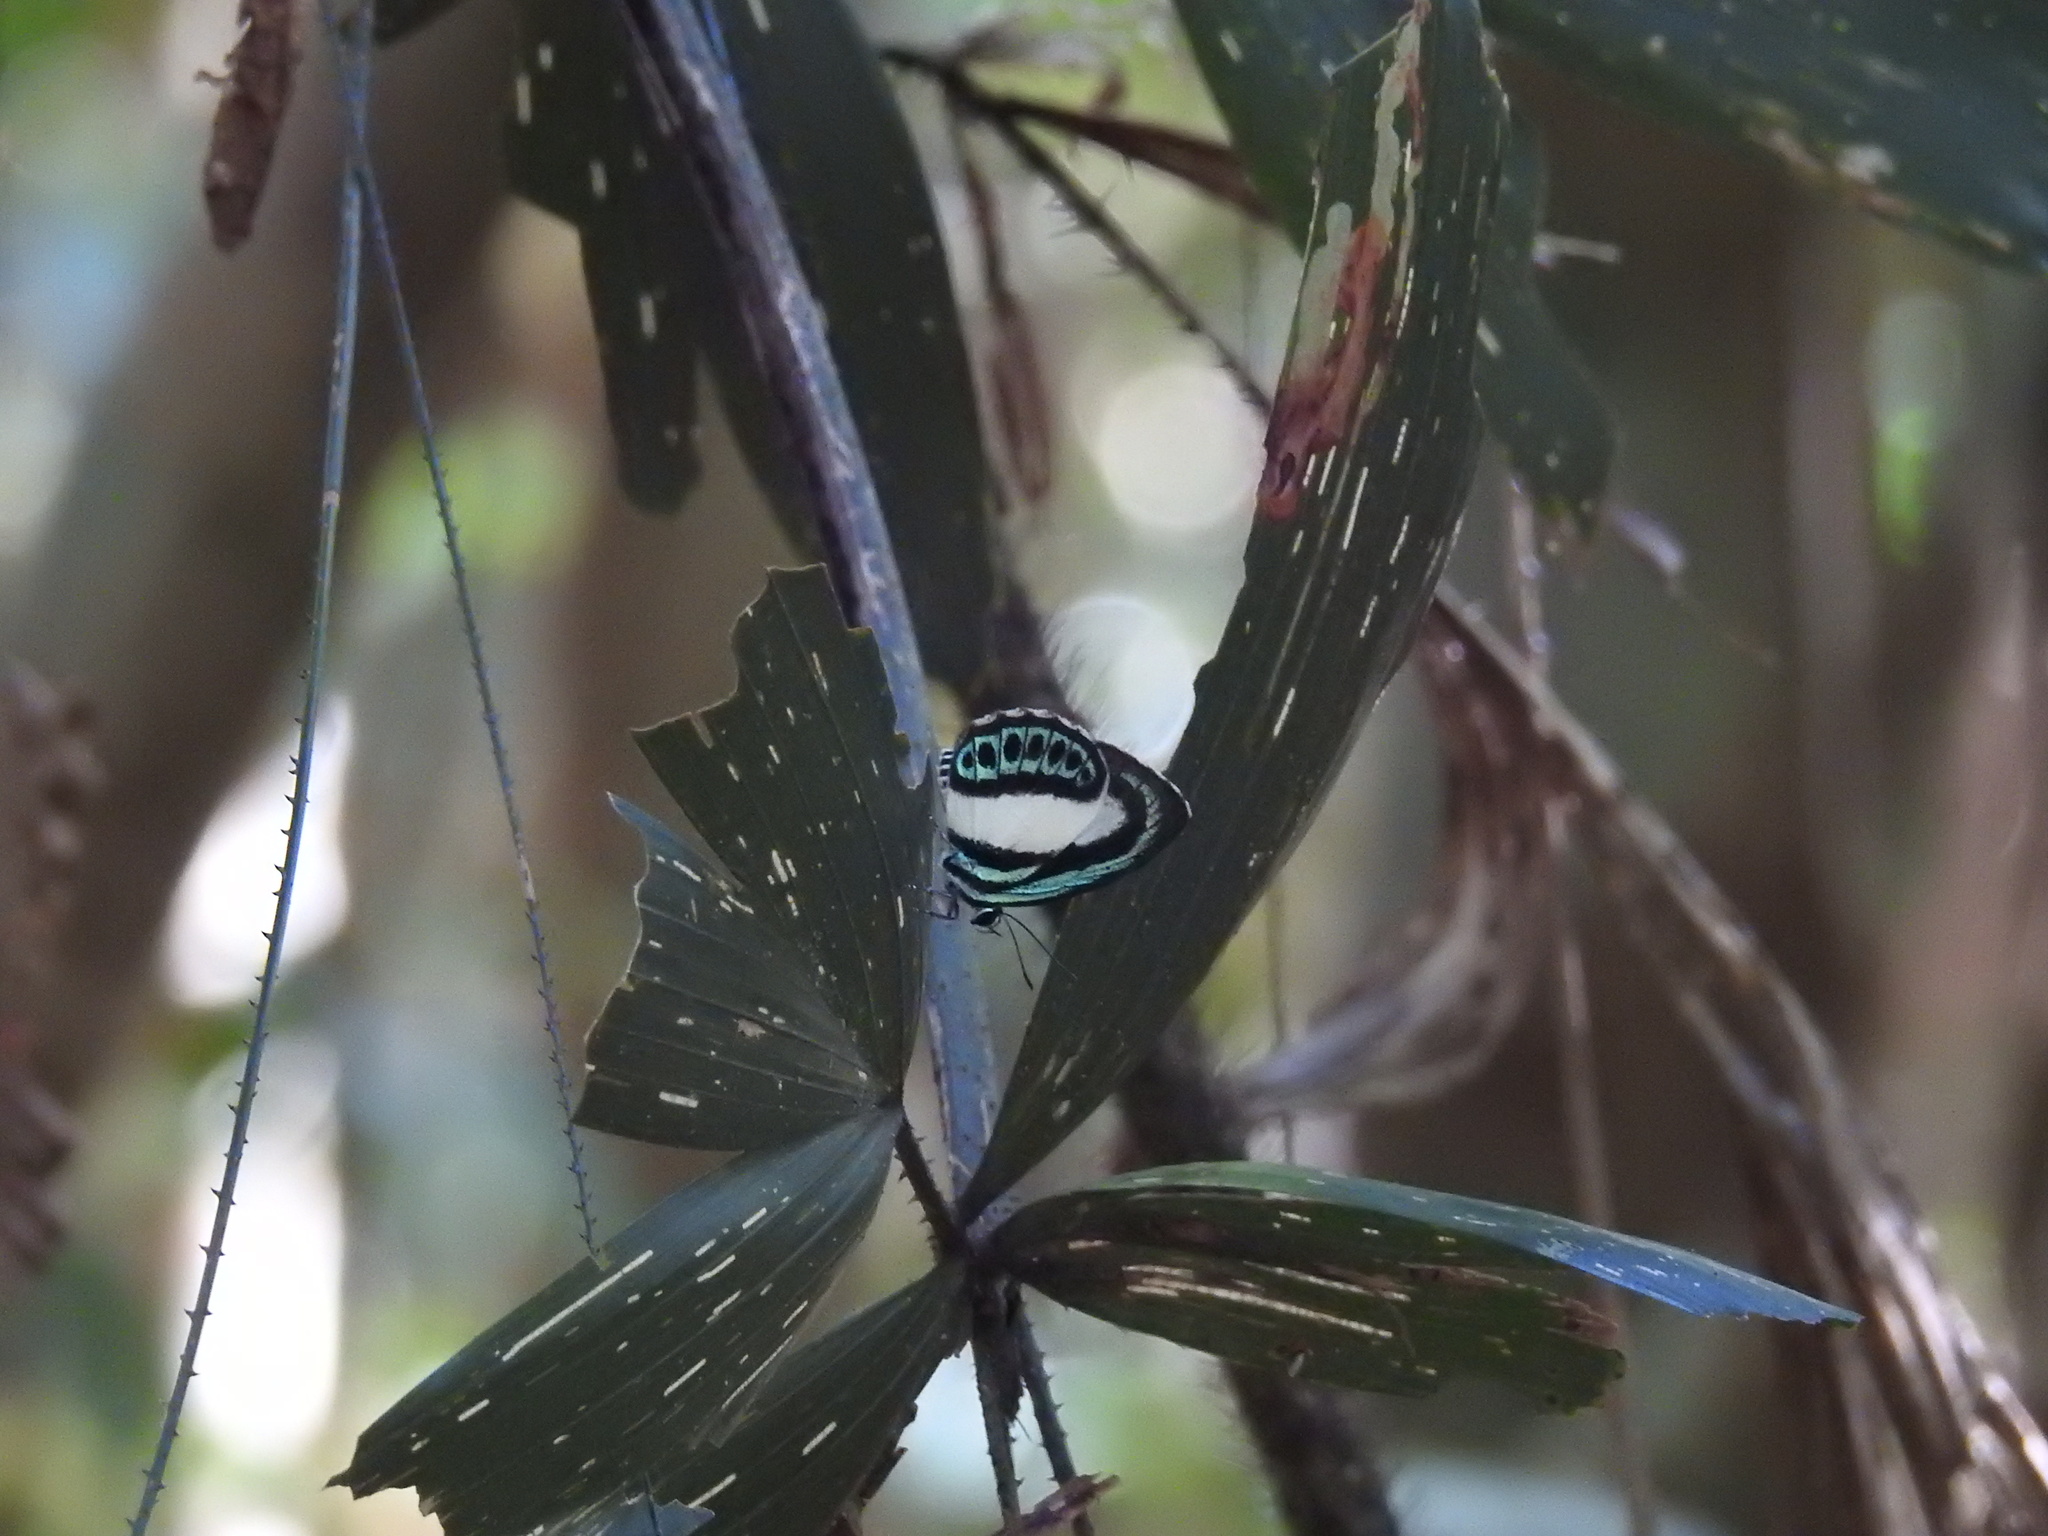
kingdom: Animalia
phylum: Arthropoda
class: Insecta
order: Lepidoptera
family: Lycaenidae
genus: Danis
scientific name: Danis danis
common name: Large green-banded blue
